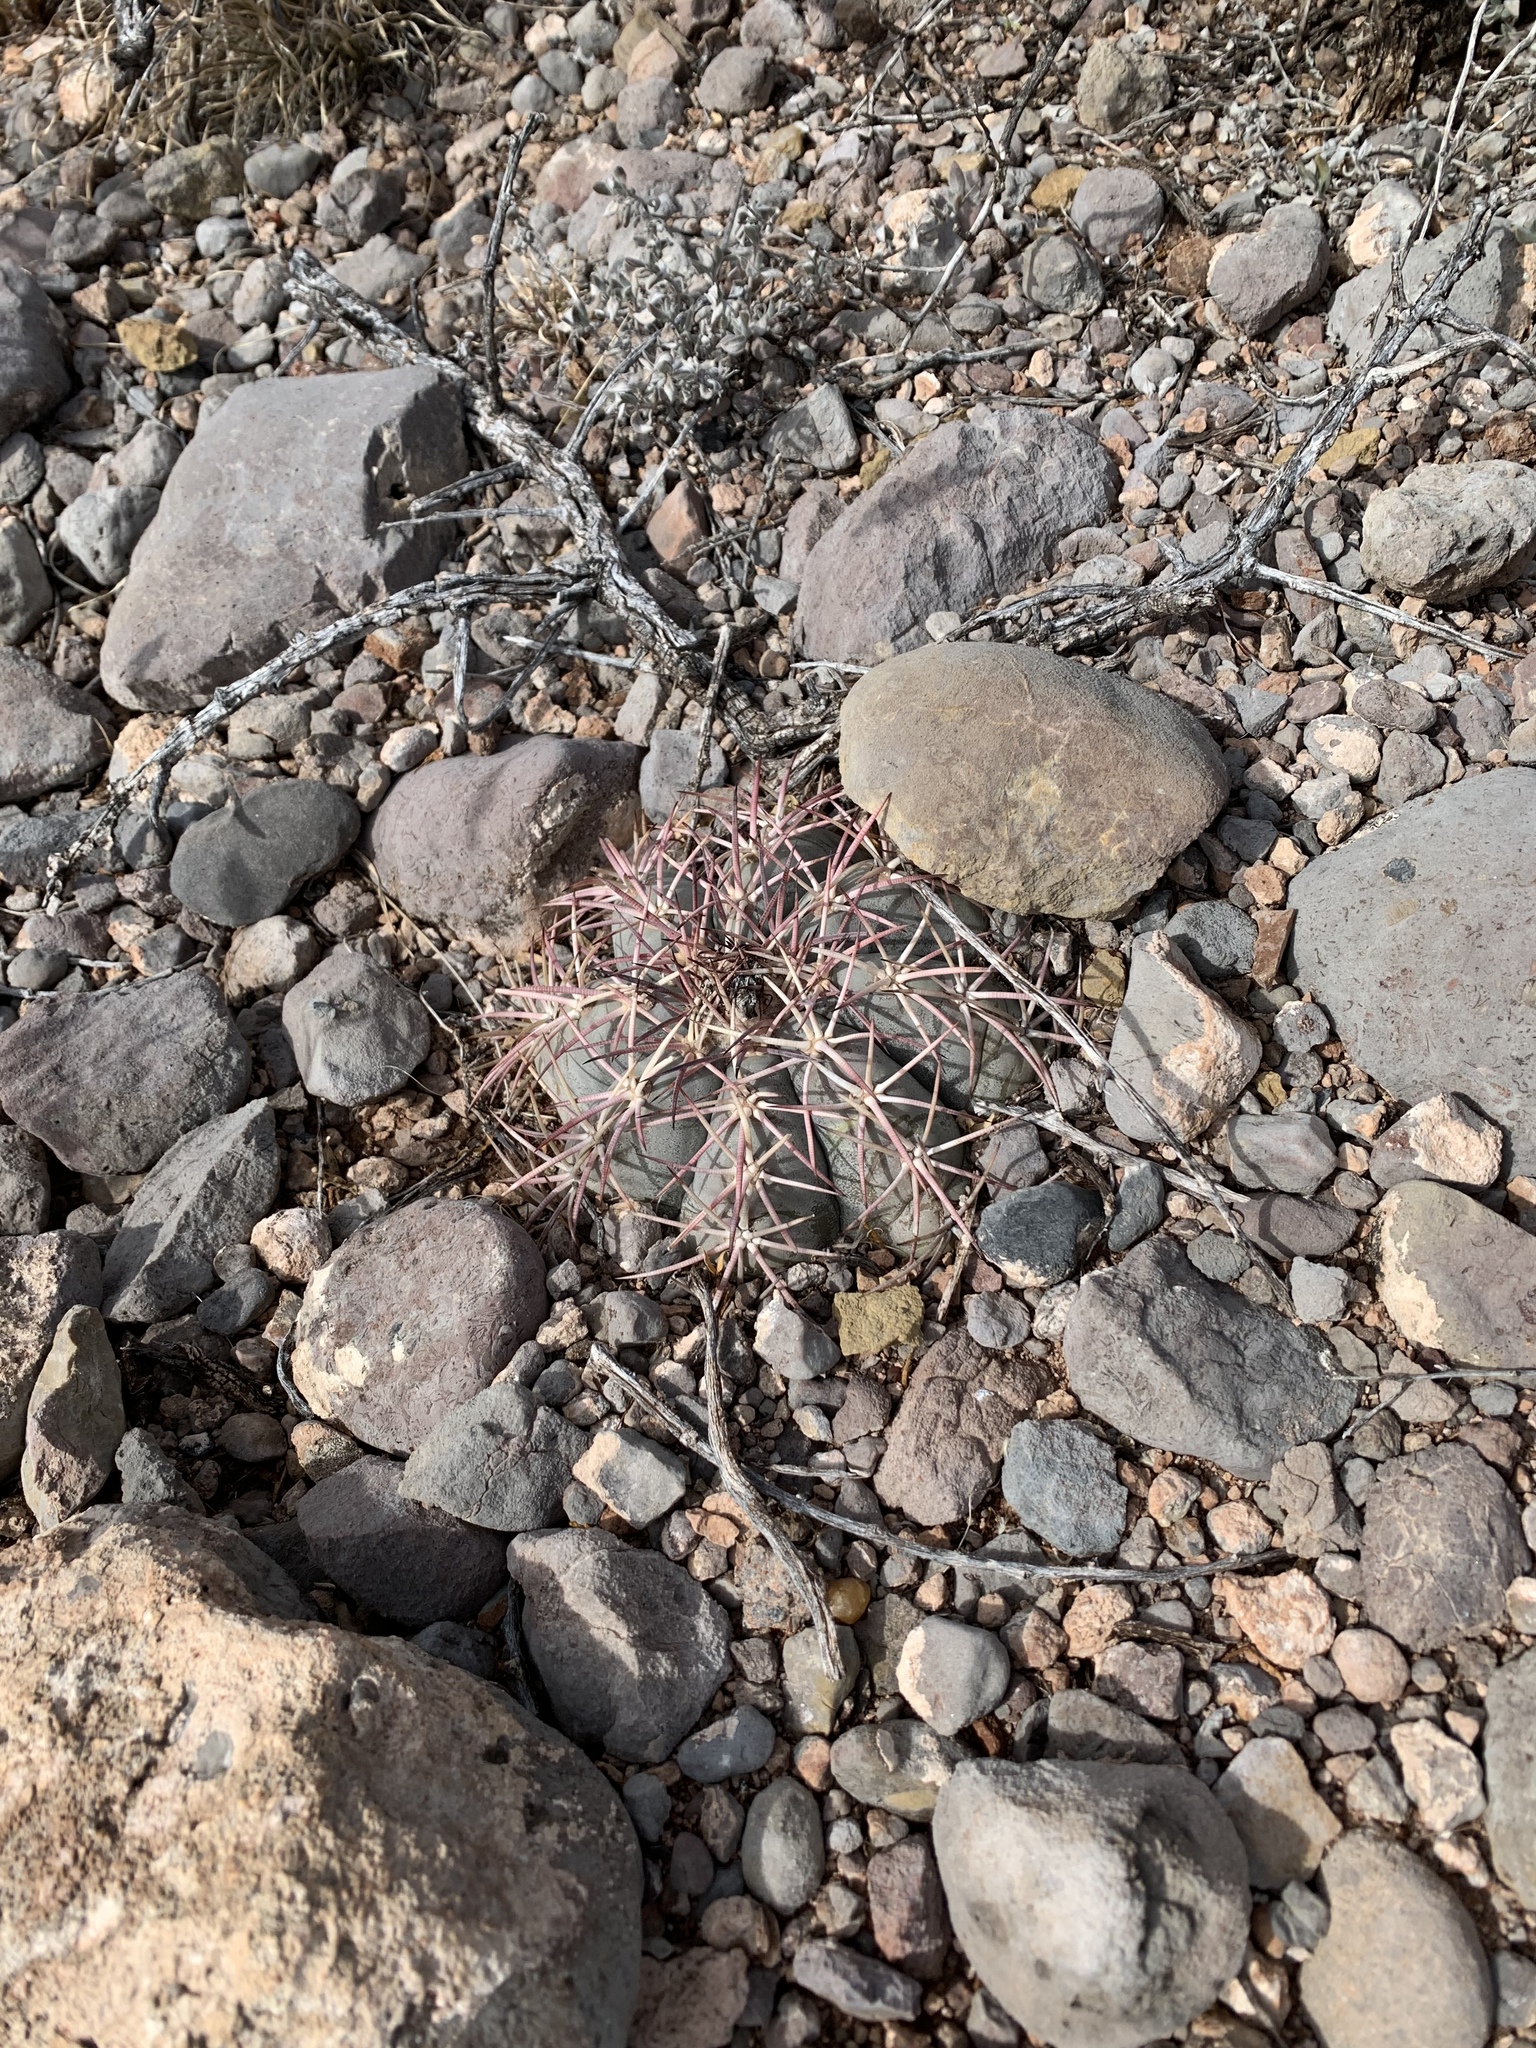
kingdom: Plantae
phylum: Tracheophyta
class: Magnoliopsida
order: Caryophyllales
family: Cactaceae
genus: Echinocactus
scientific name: Echinocactus horizonthalonius
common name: Devilshead
